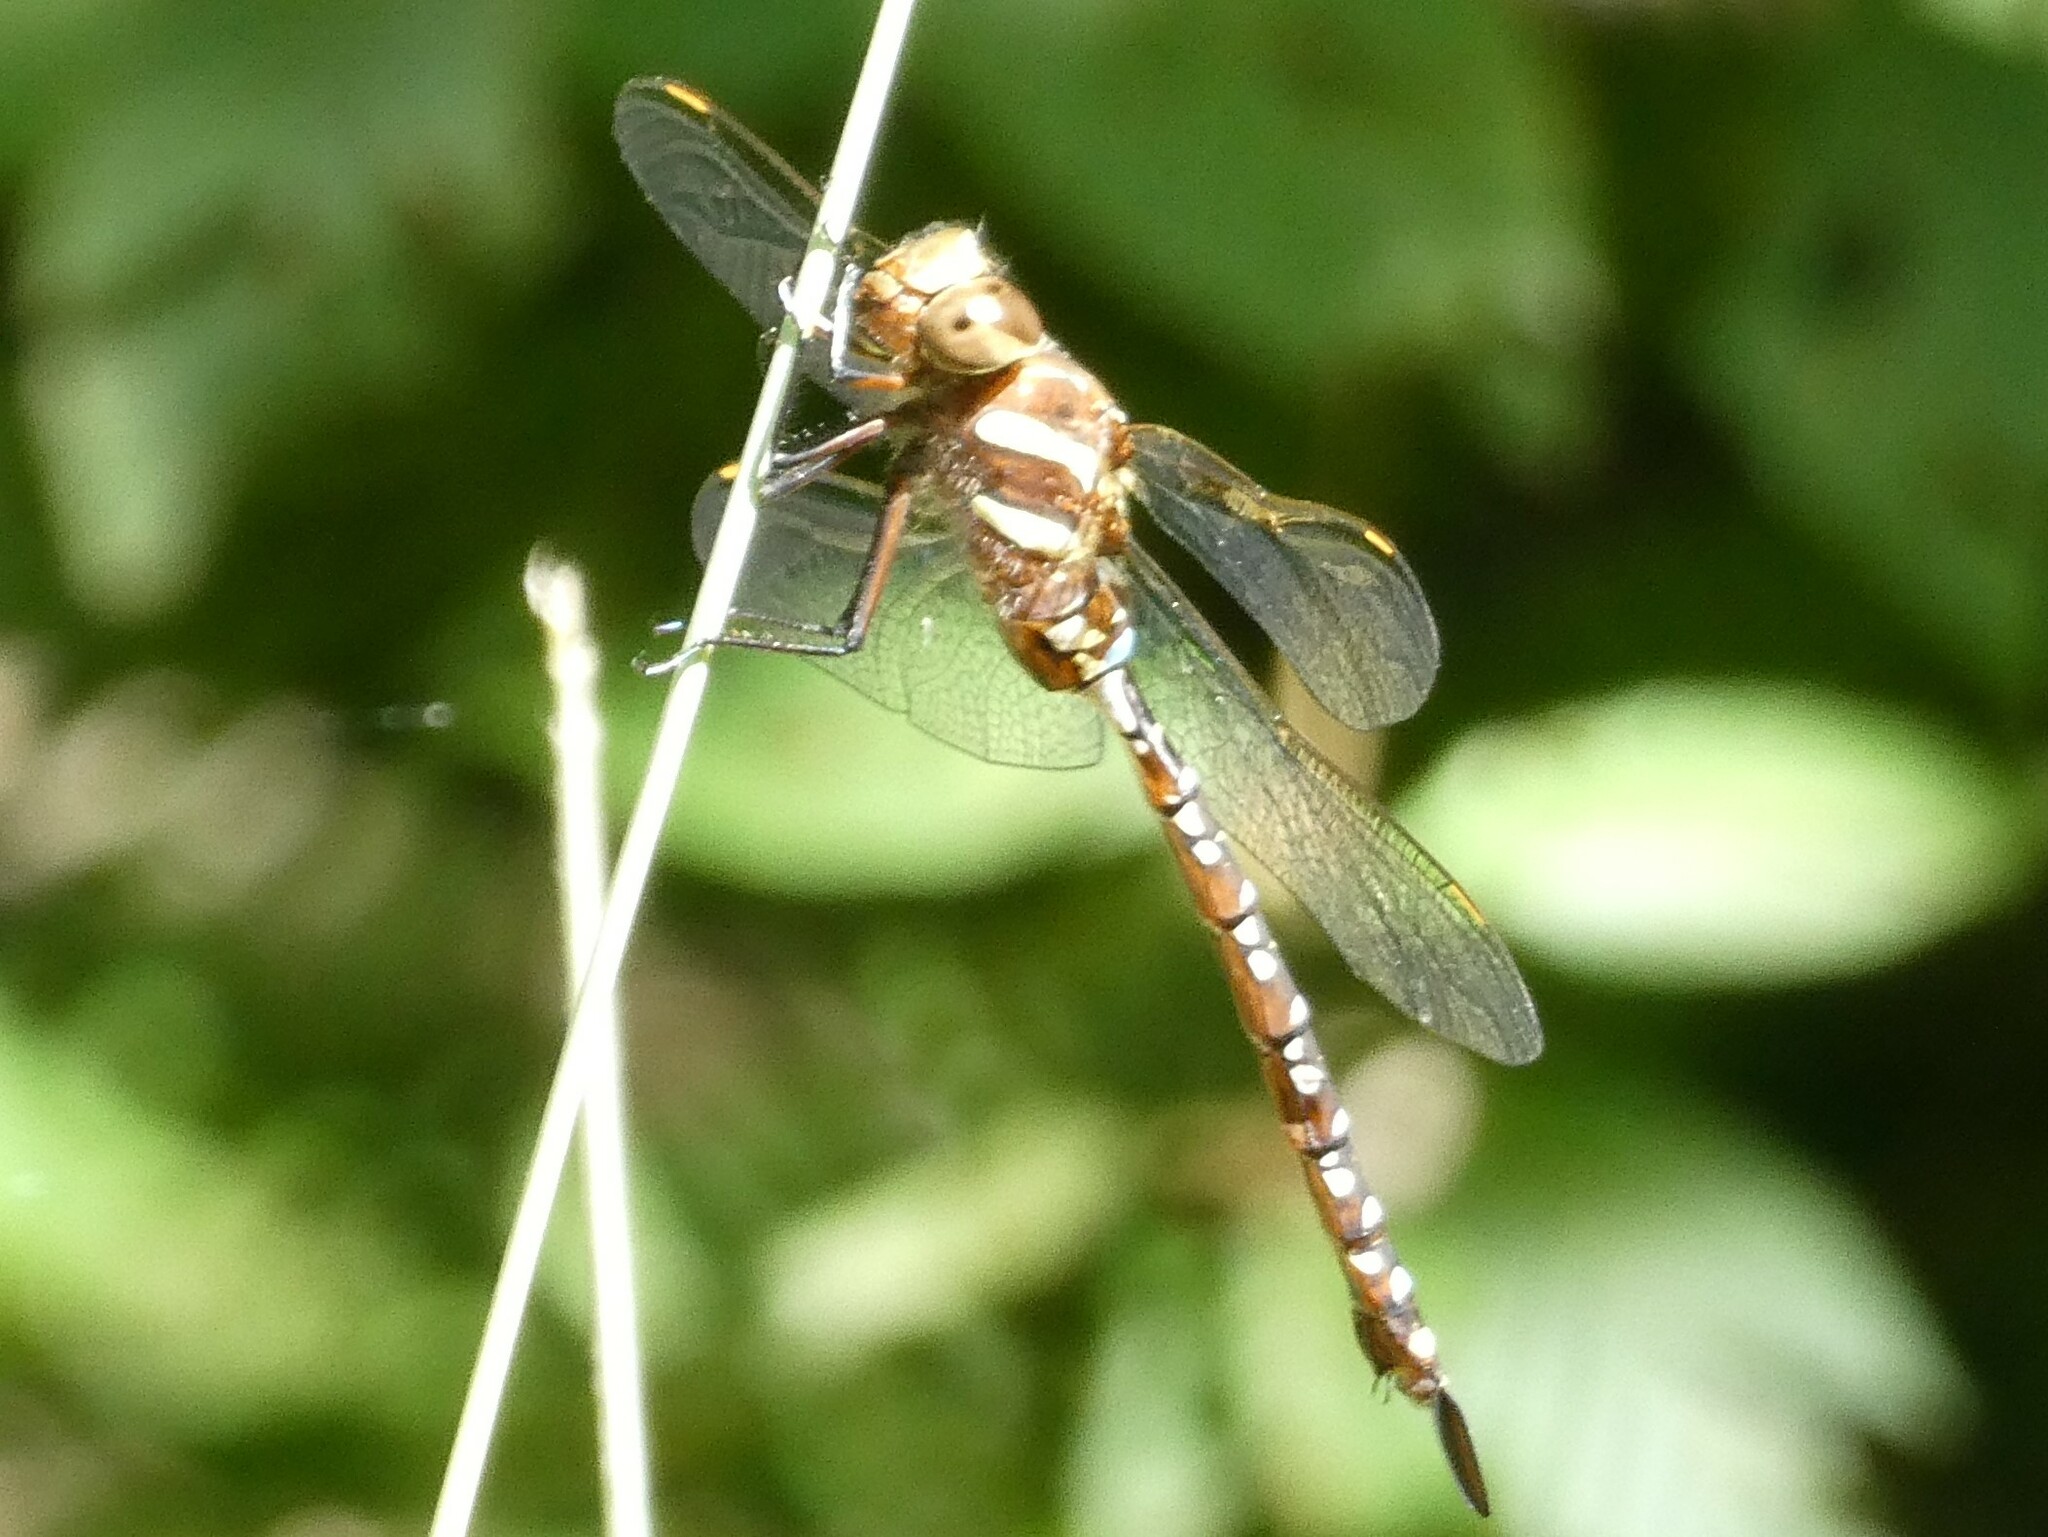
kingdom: Animalia
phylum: Arthropoda
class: Insecta
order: Odonata
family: Aeshnidae
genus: Aeshna
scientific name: Aeshna tuberculifera
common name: Aeschne à tubercules
